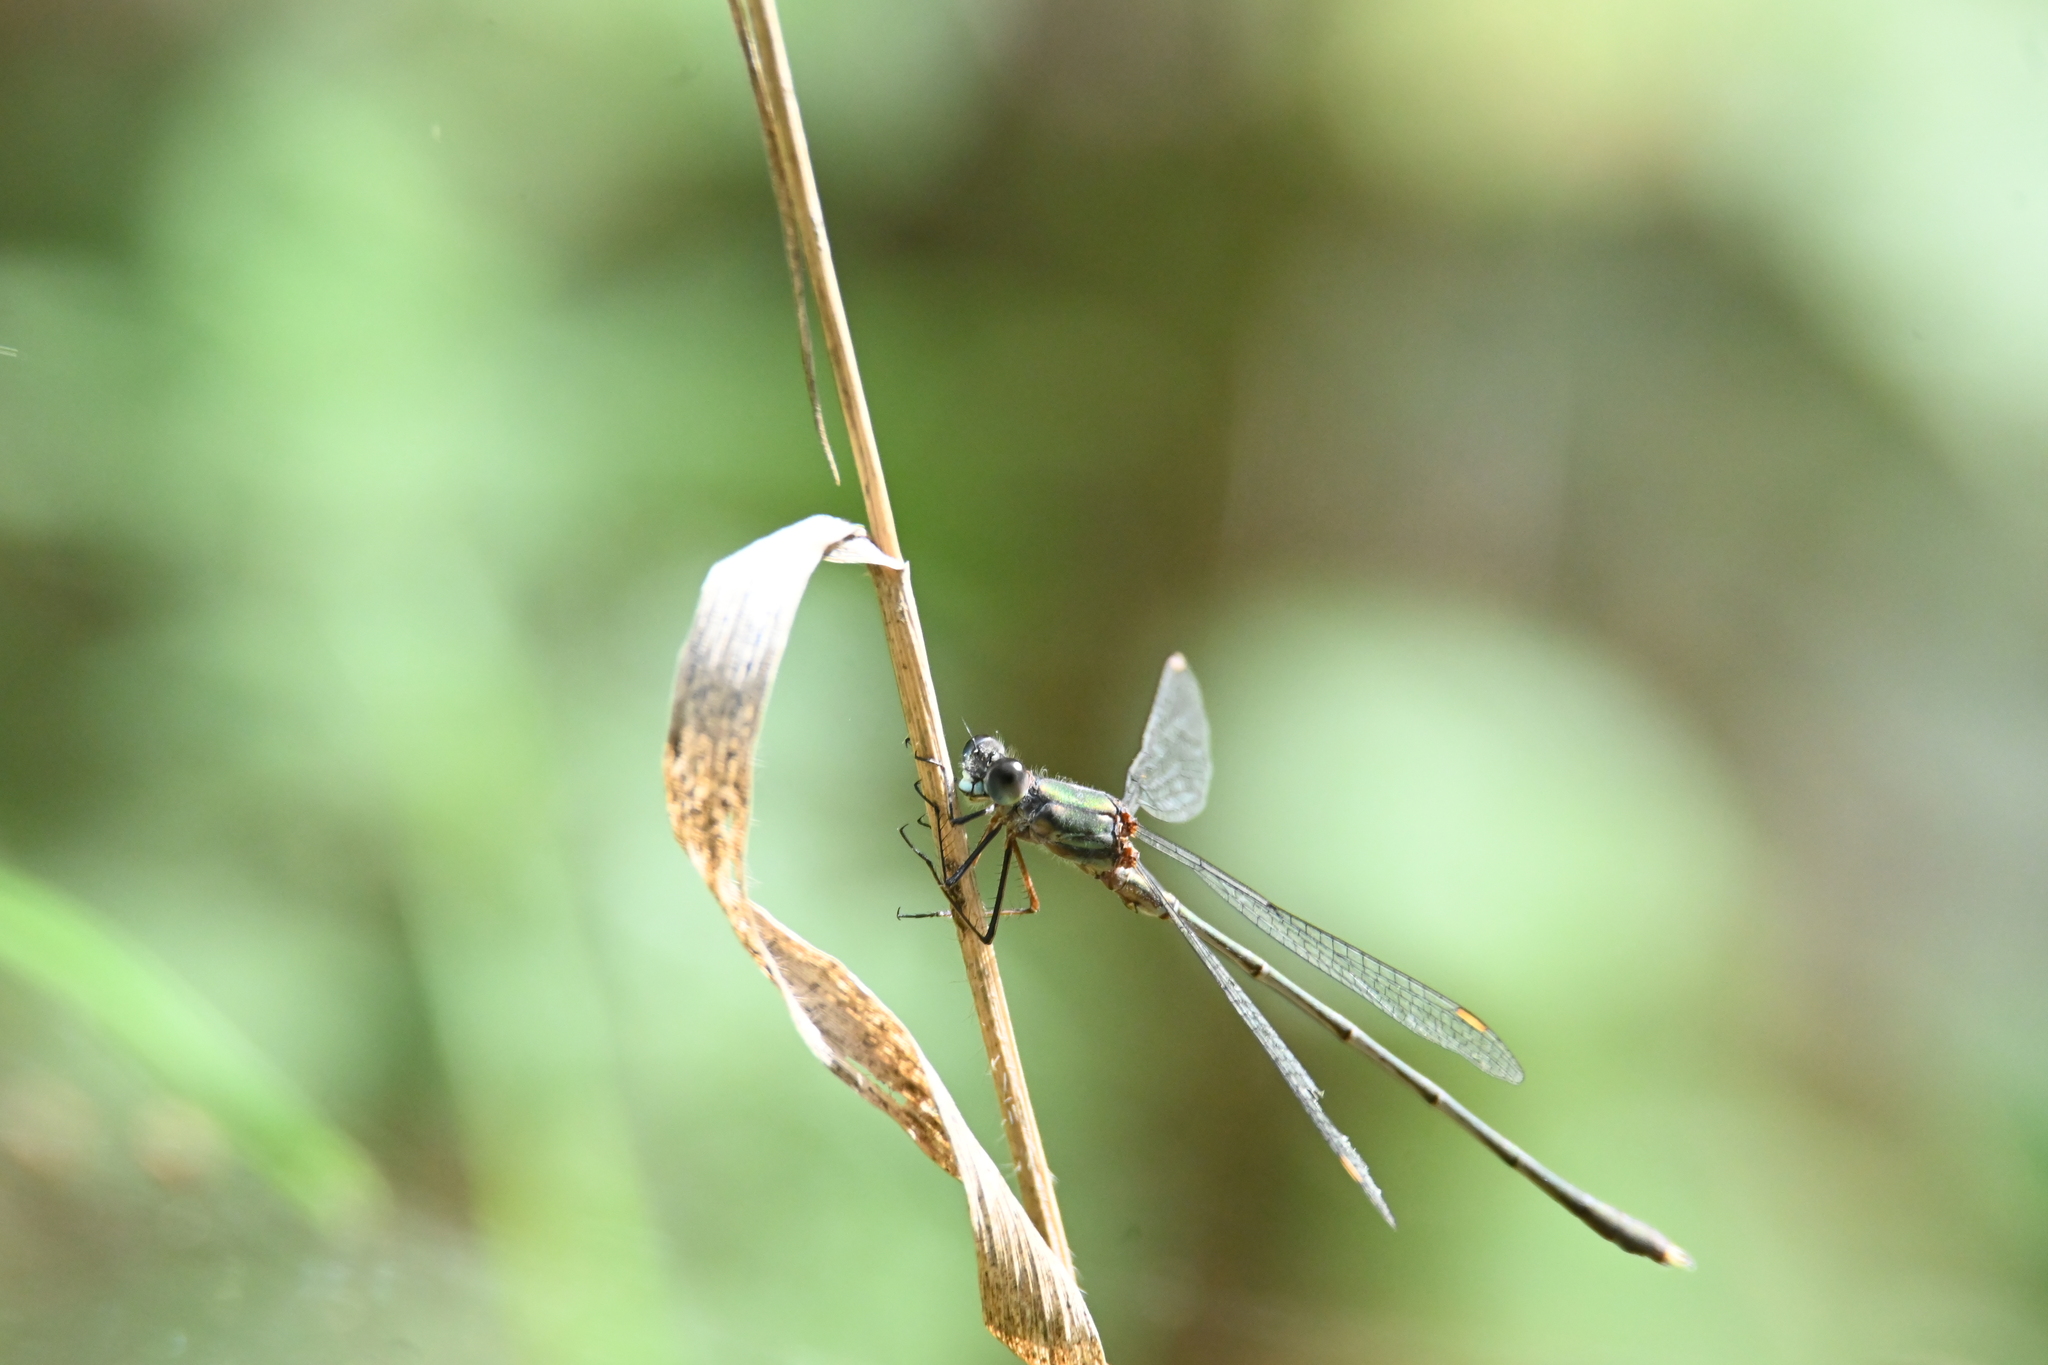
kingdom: Animalia
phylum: Arthropoda
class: Insecta
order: Odonata
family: Lestidae
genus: Chalcolestes
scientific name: Chalcolestes viridis
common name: Green emerald damselfly
